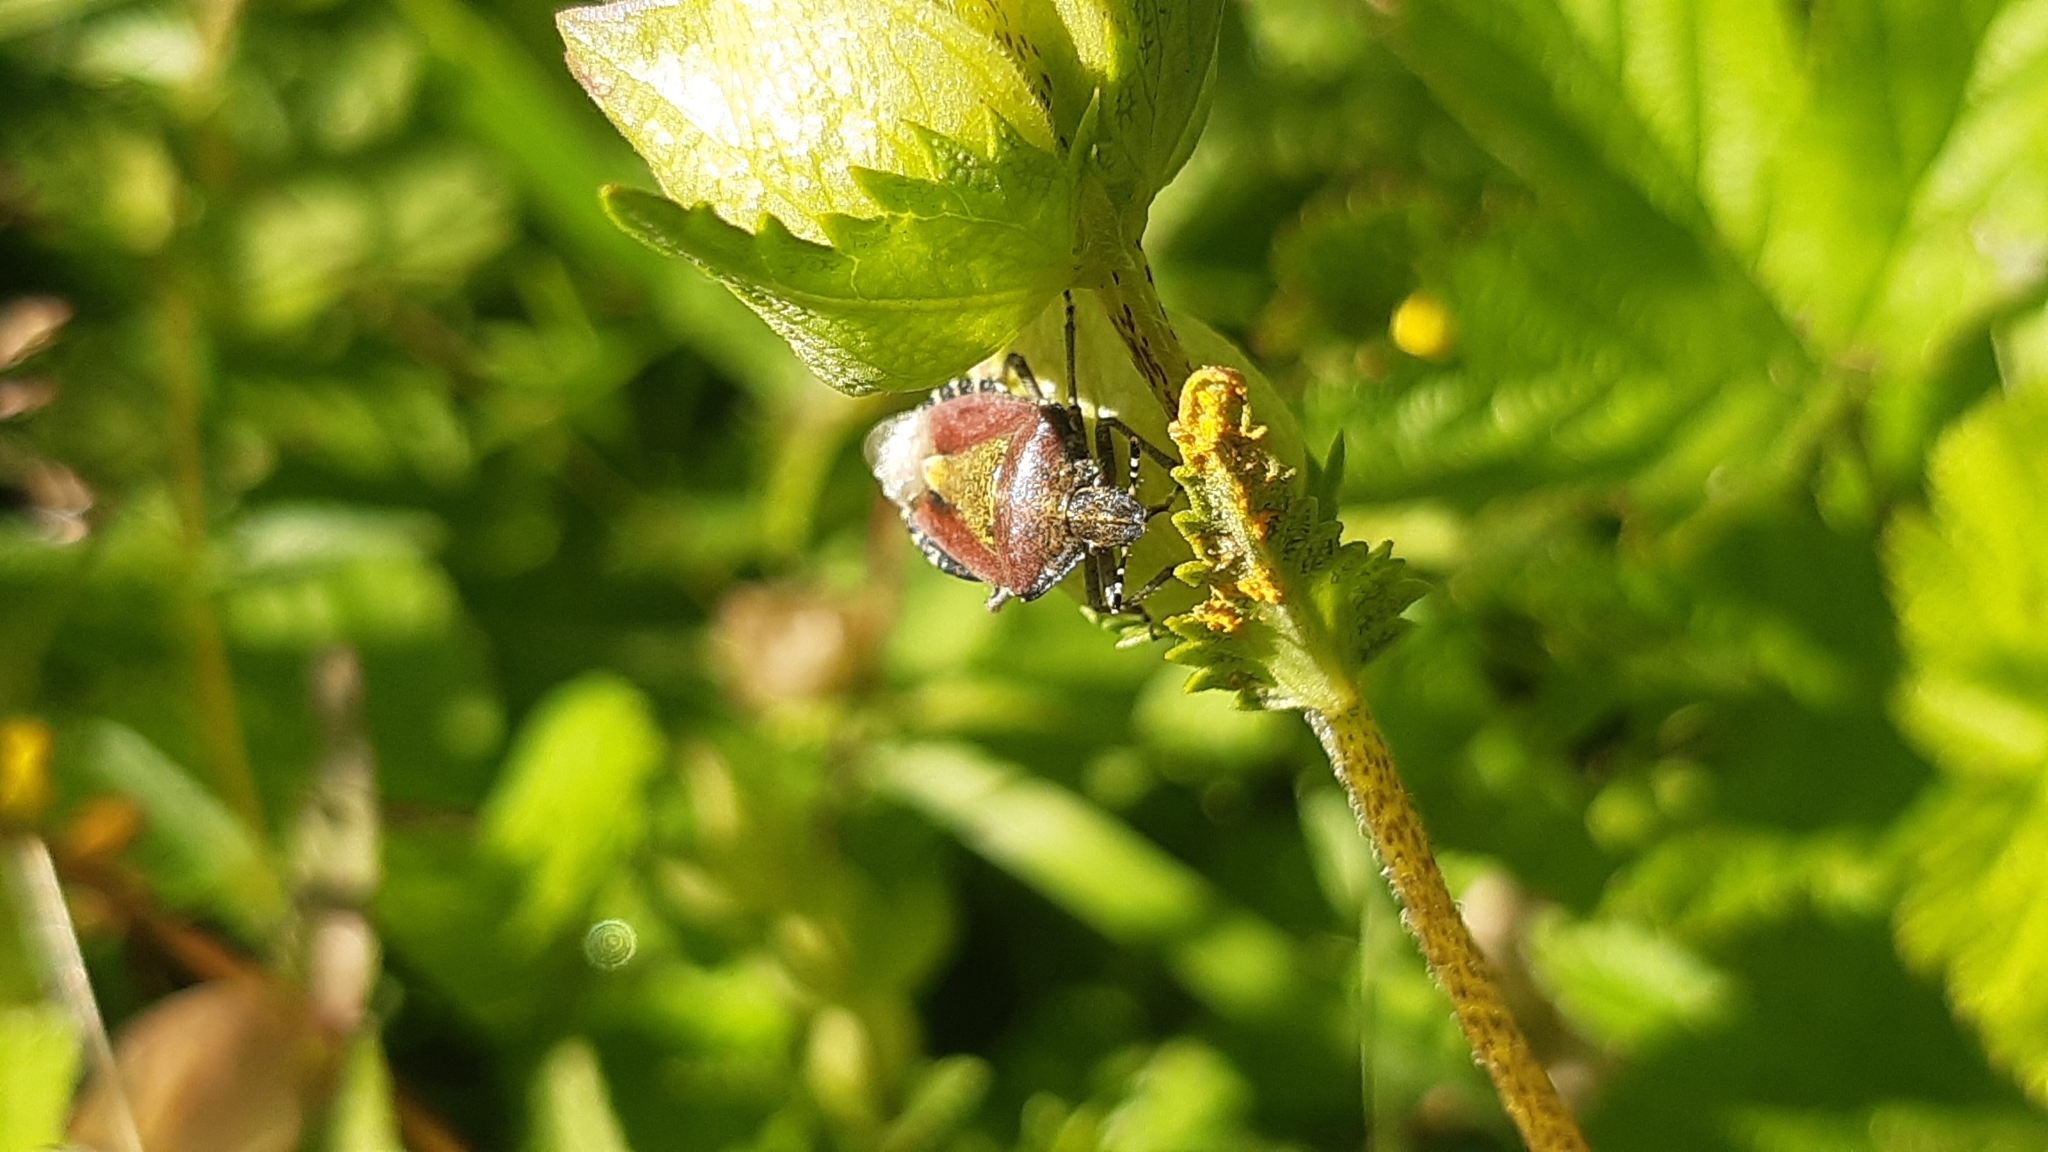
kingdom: Animalia
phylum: Arthropoda
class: Insecta
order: Hemiptera
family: Pentatomidae
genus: Dolycoris
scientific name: Dolycoris baccarum
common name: Sloe bug
